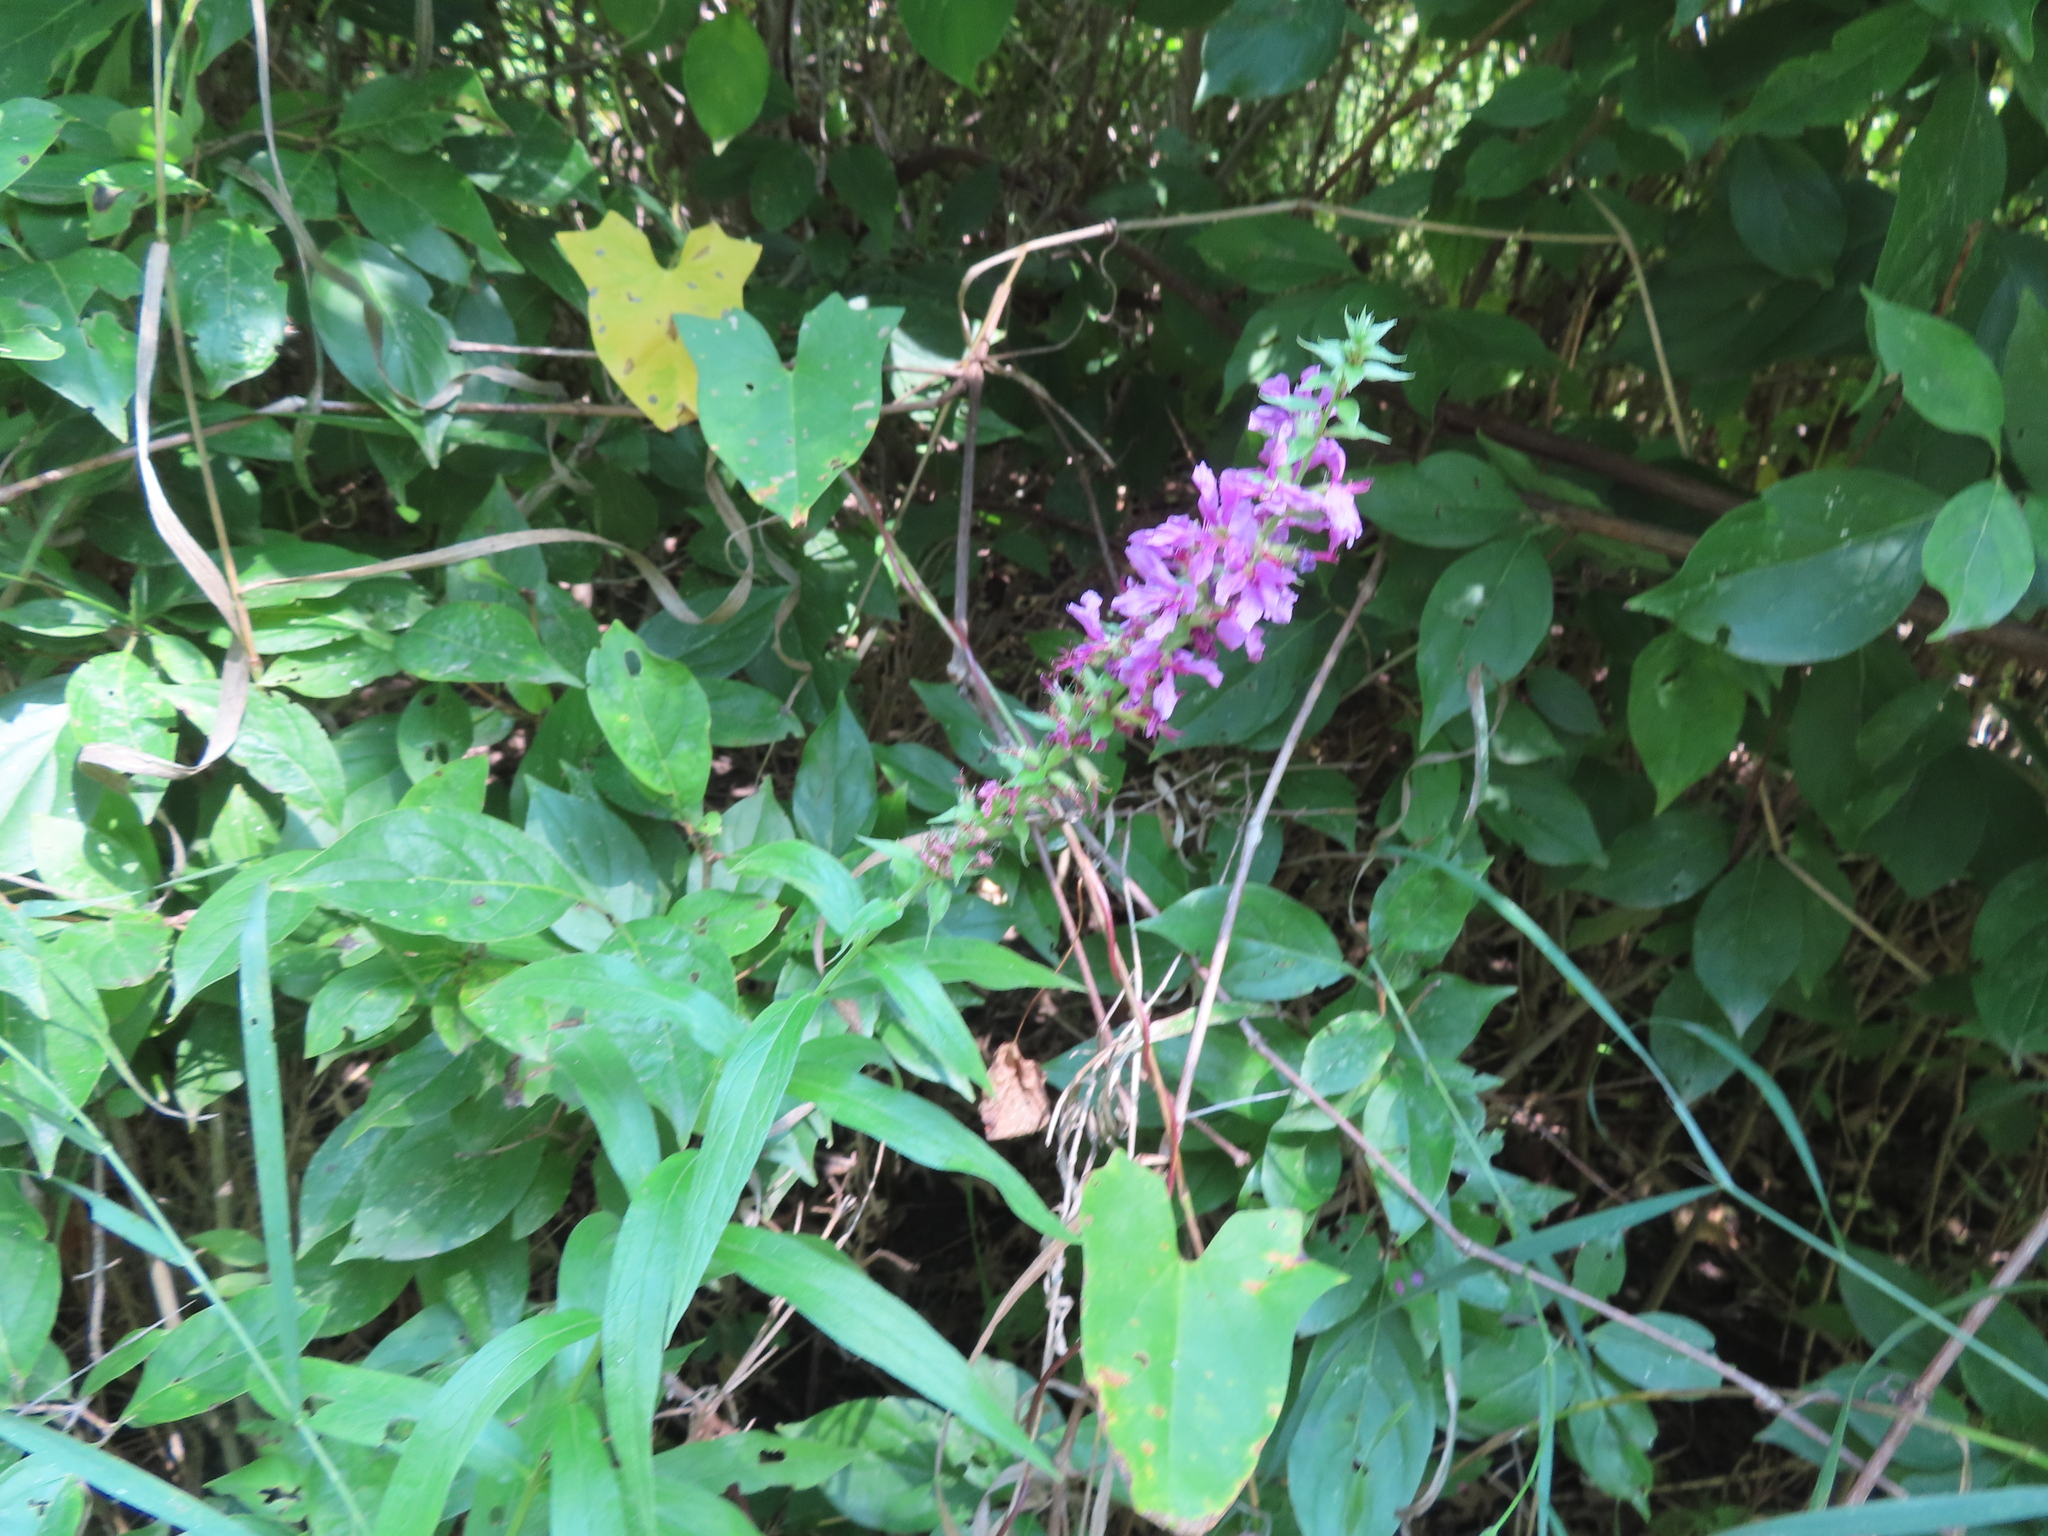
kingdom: Plantae
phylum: Tracheophyta
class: Magnoliopsida
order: Myrtales
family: Lythraceae
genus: Lythrum
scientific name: Lythrum salicaria
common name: Purple loosestrife
